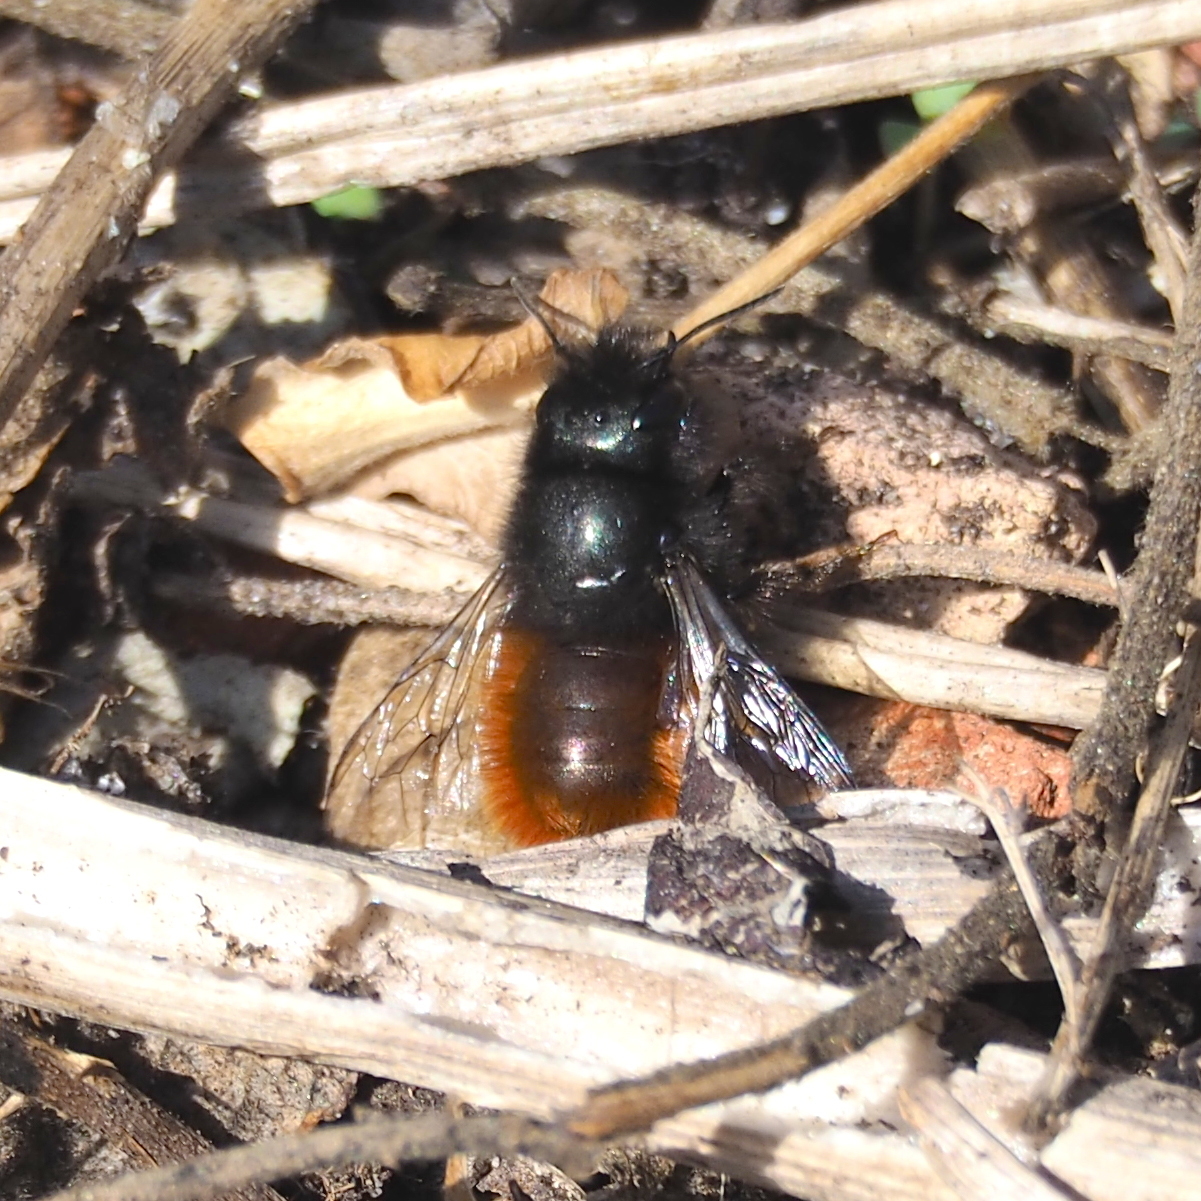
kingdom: Animalia
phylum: Arthropoda
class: Insecta
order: Hymenoptera
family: Megachilidae
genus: Osmia
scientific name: Osmia cornuta
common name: Mason bee
